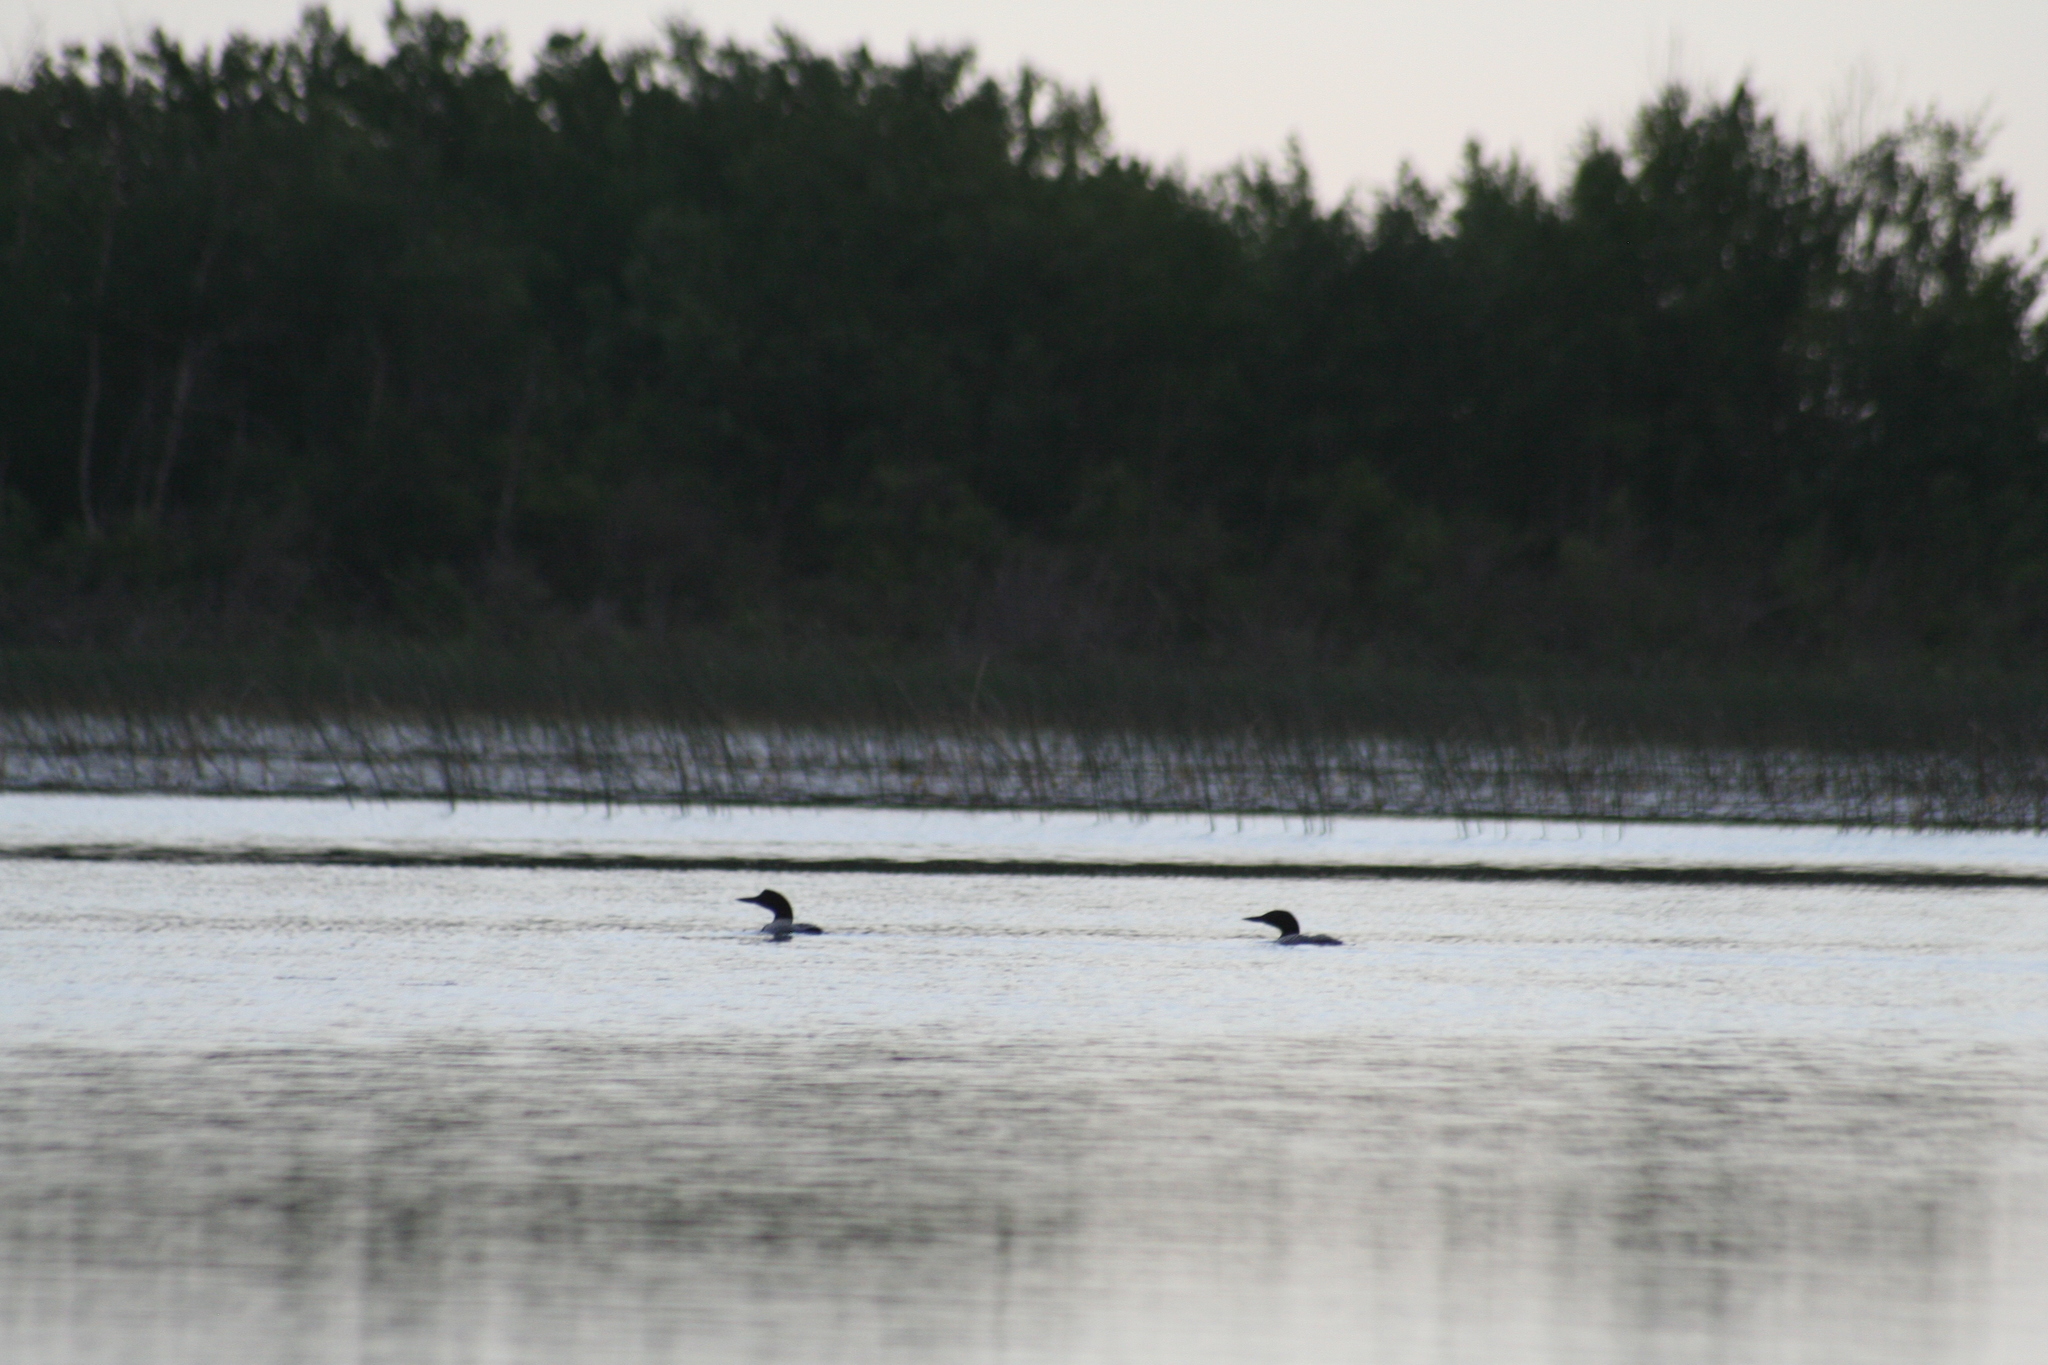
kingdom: Animalia
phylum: Chordata
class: Aves
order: Gaviiformes
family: Gaviidae
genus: Gavia
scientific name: Gavia immer
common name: Common loon
